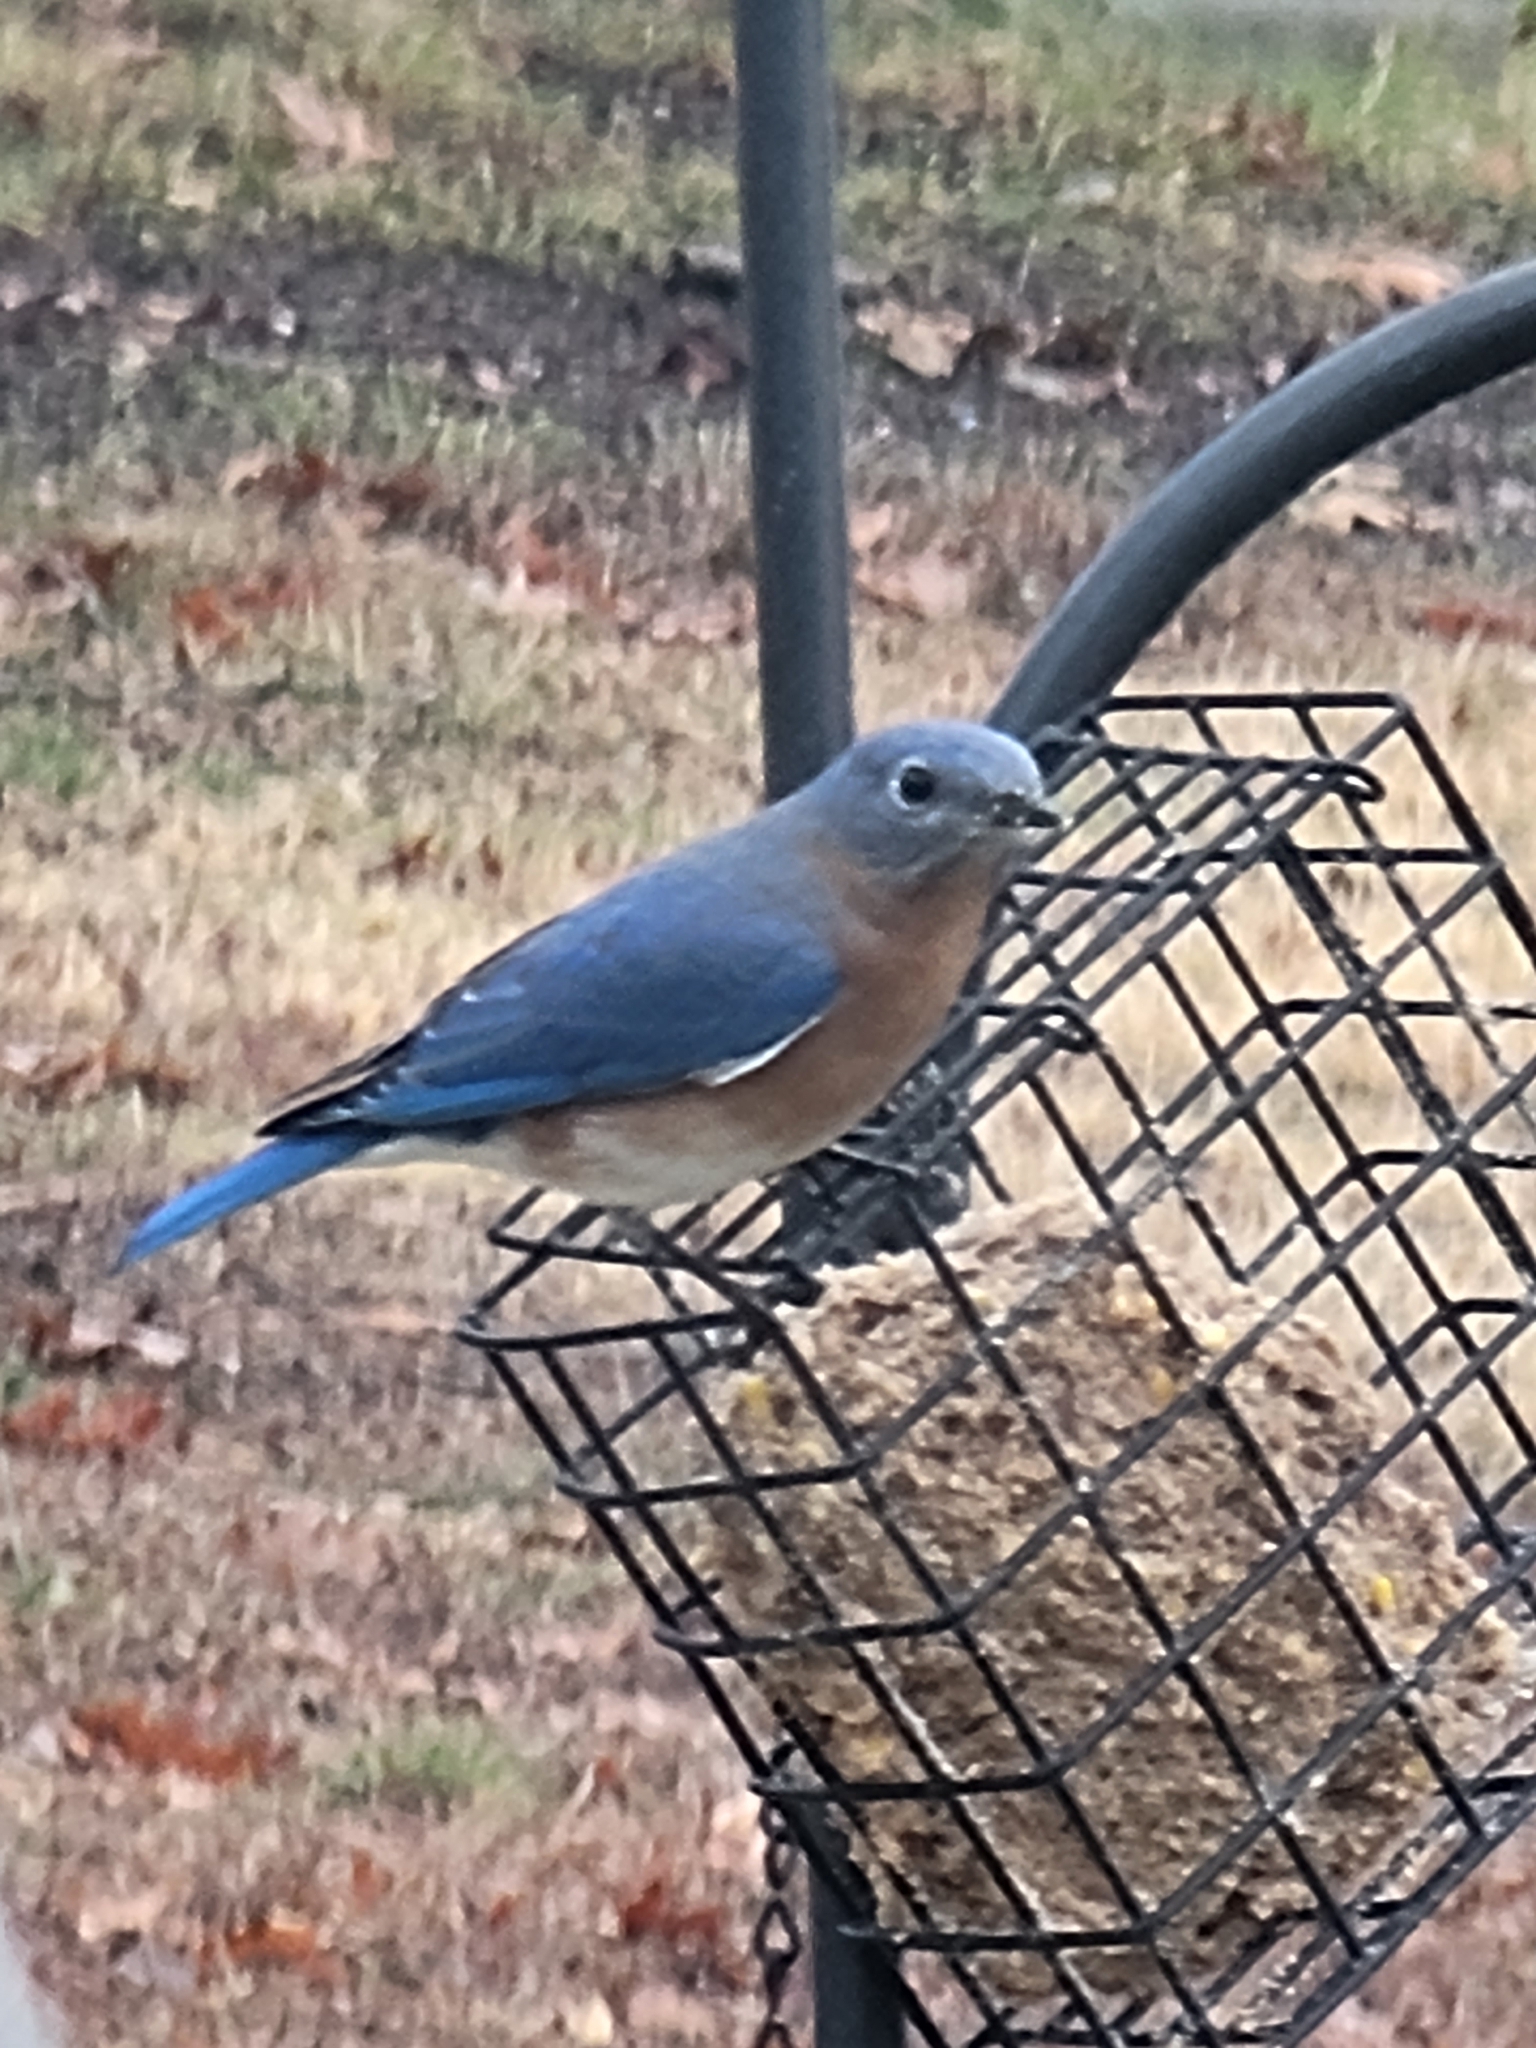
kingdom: Animalia
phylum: Chordata
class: Aves
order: Passeriformes
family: Turdidae
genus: Sialia
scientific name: Sialia sialis
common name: Eastern bluebird
